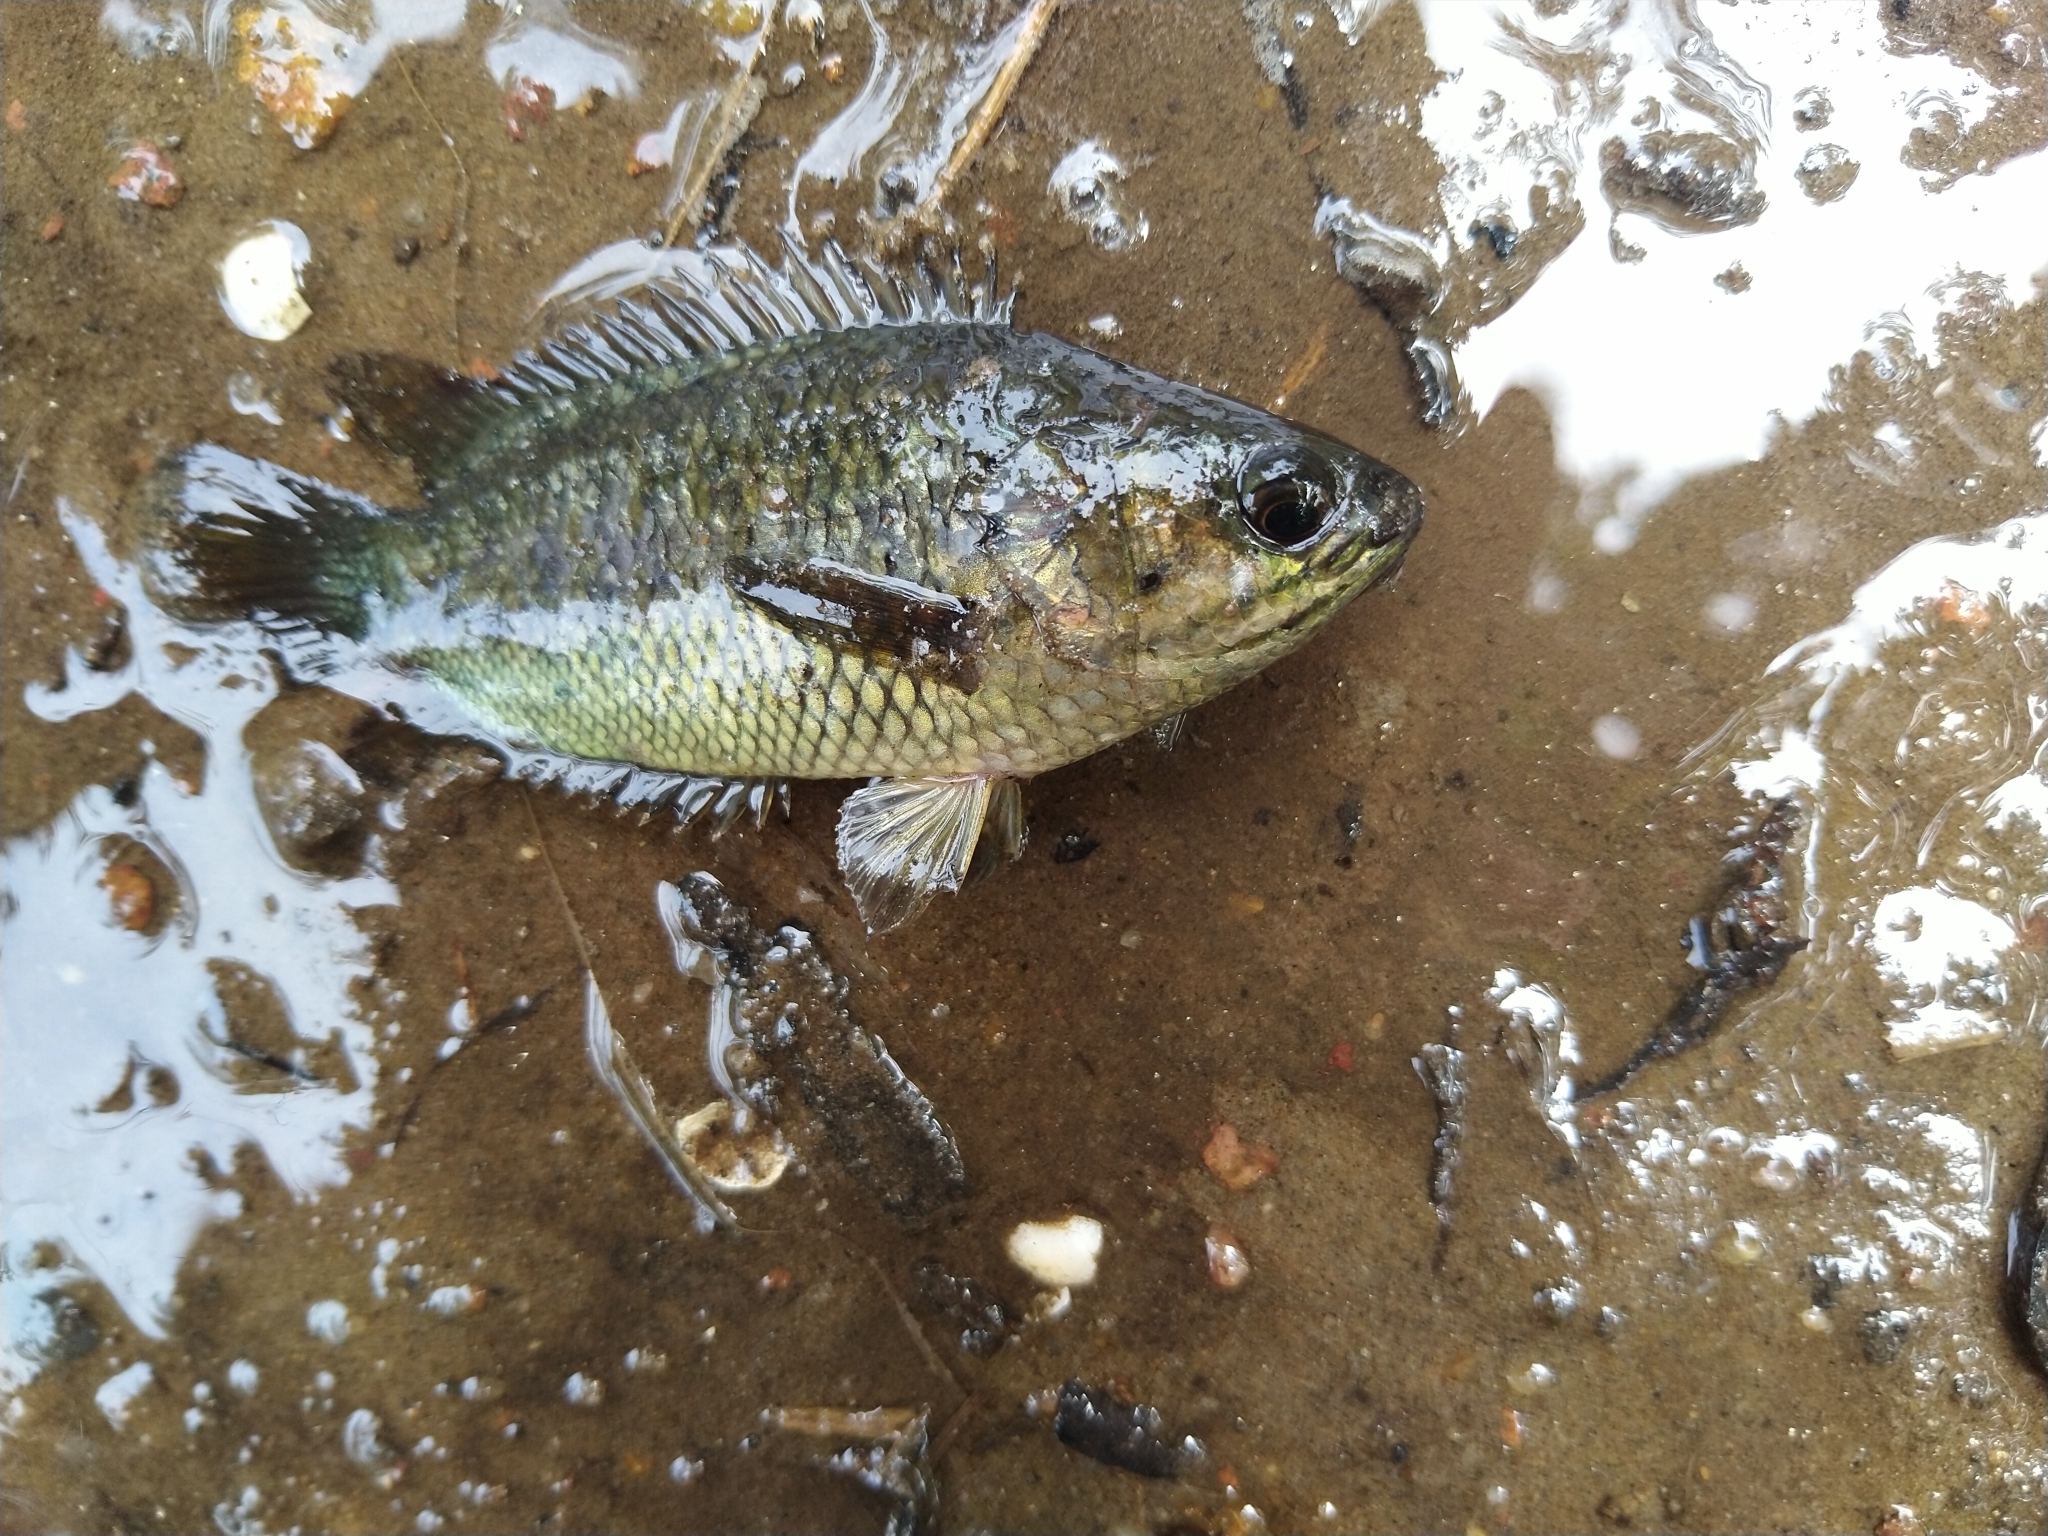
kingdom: Animalia
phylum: Chordata
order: Perciformes
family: Anabantidae
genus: Anabas
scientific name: Anabas testudineus
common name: Climbing perch
